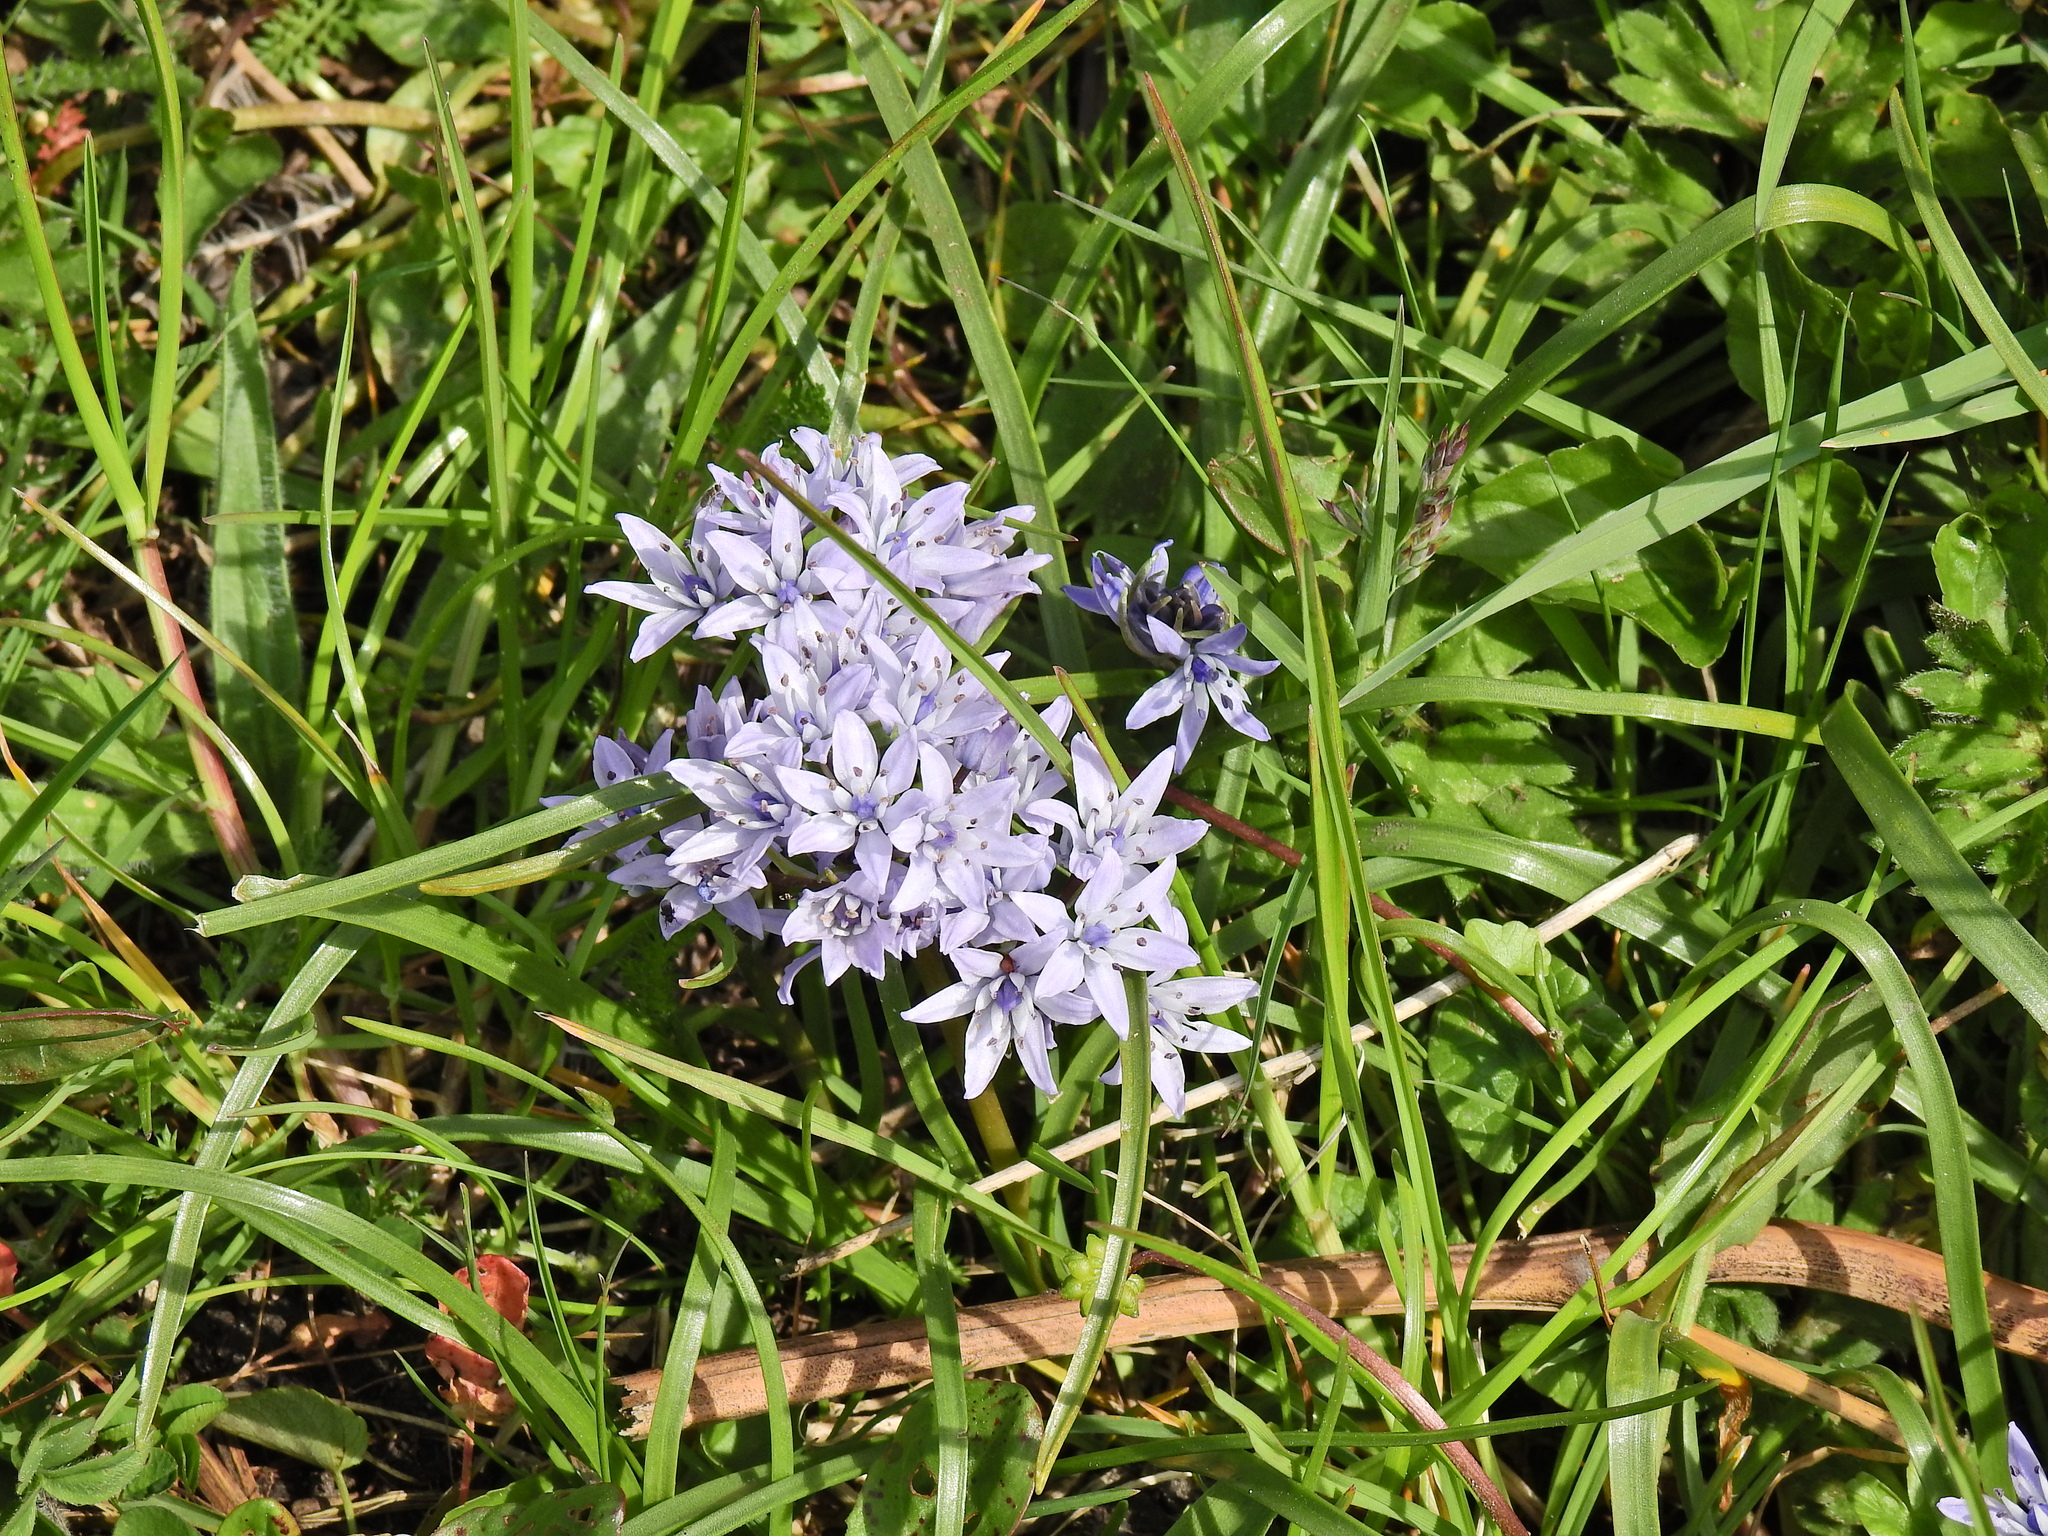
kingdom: Plantae
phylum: Tracheophyta
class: Liliopsida
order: Asparagales
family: Asparagaceae
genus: Scilla
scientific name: Scilla verna
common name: Spring squill
